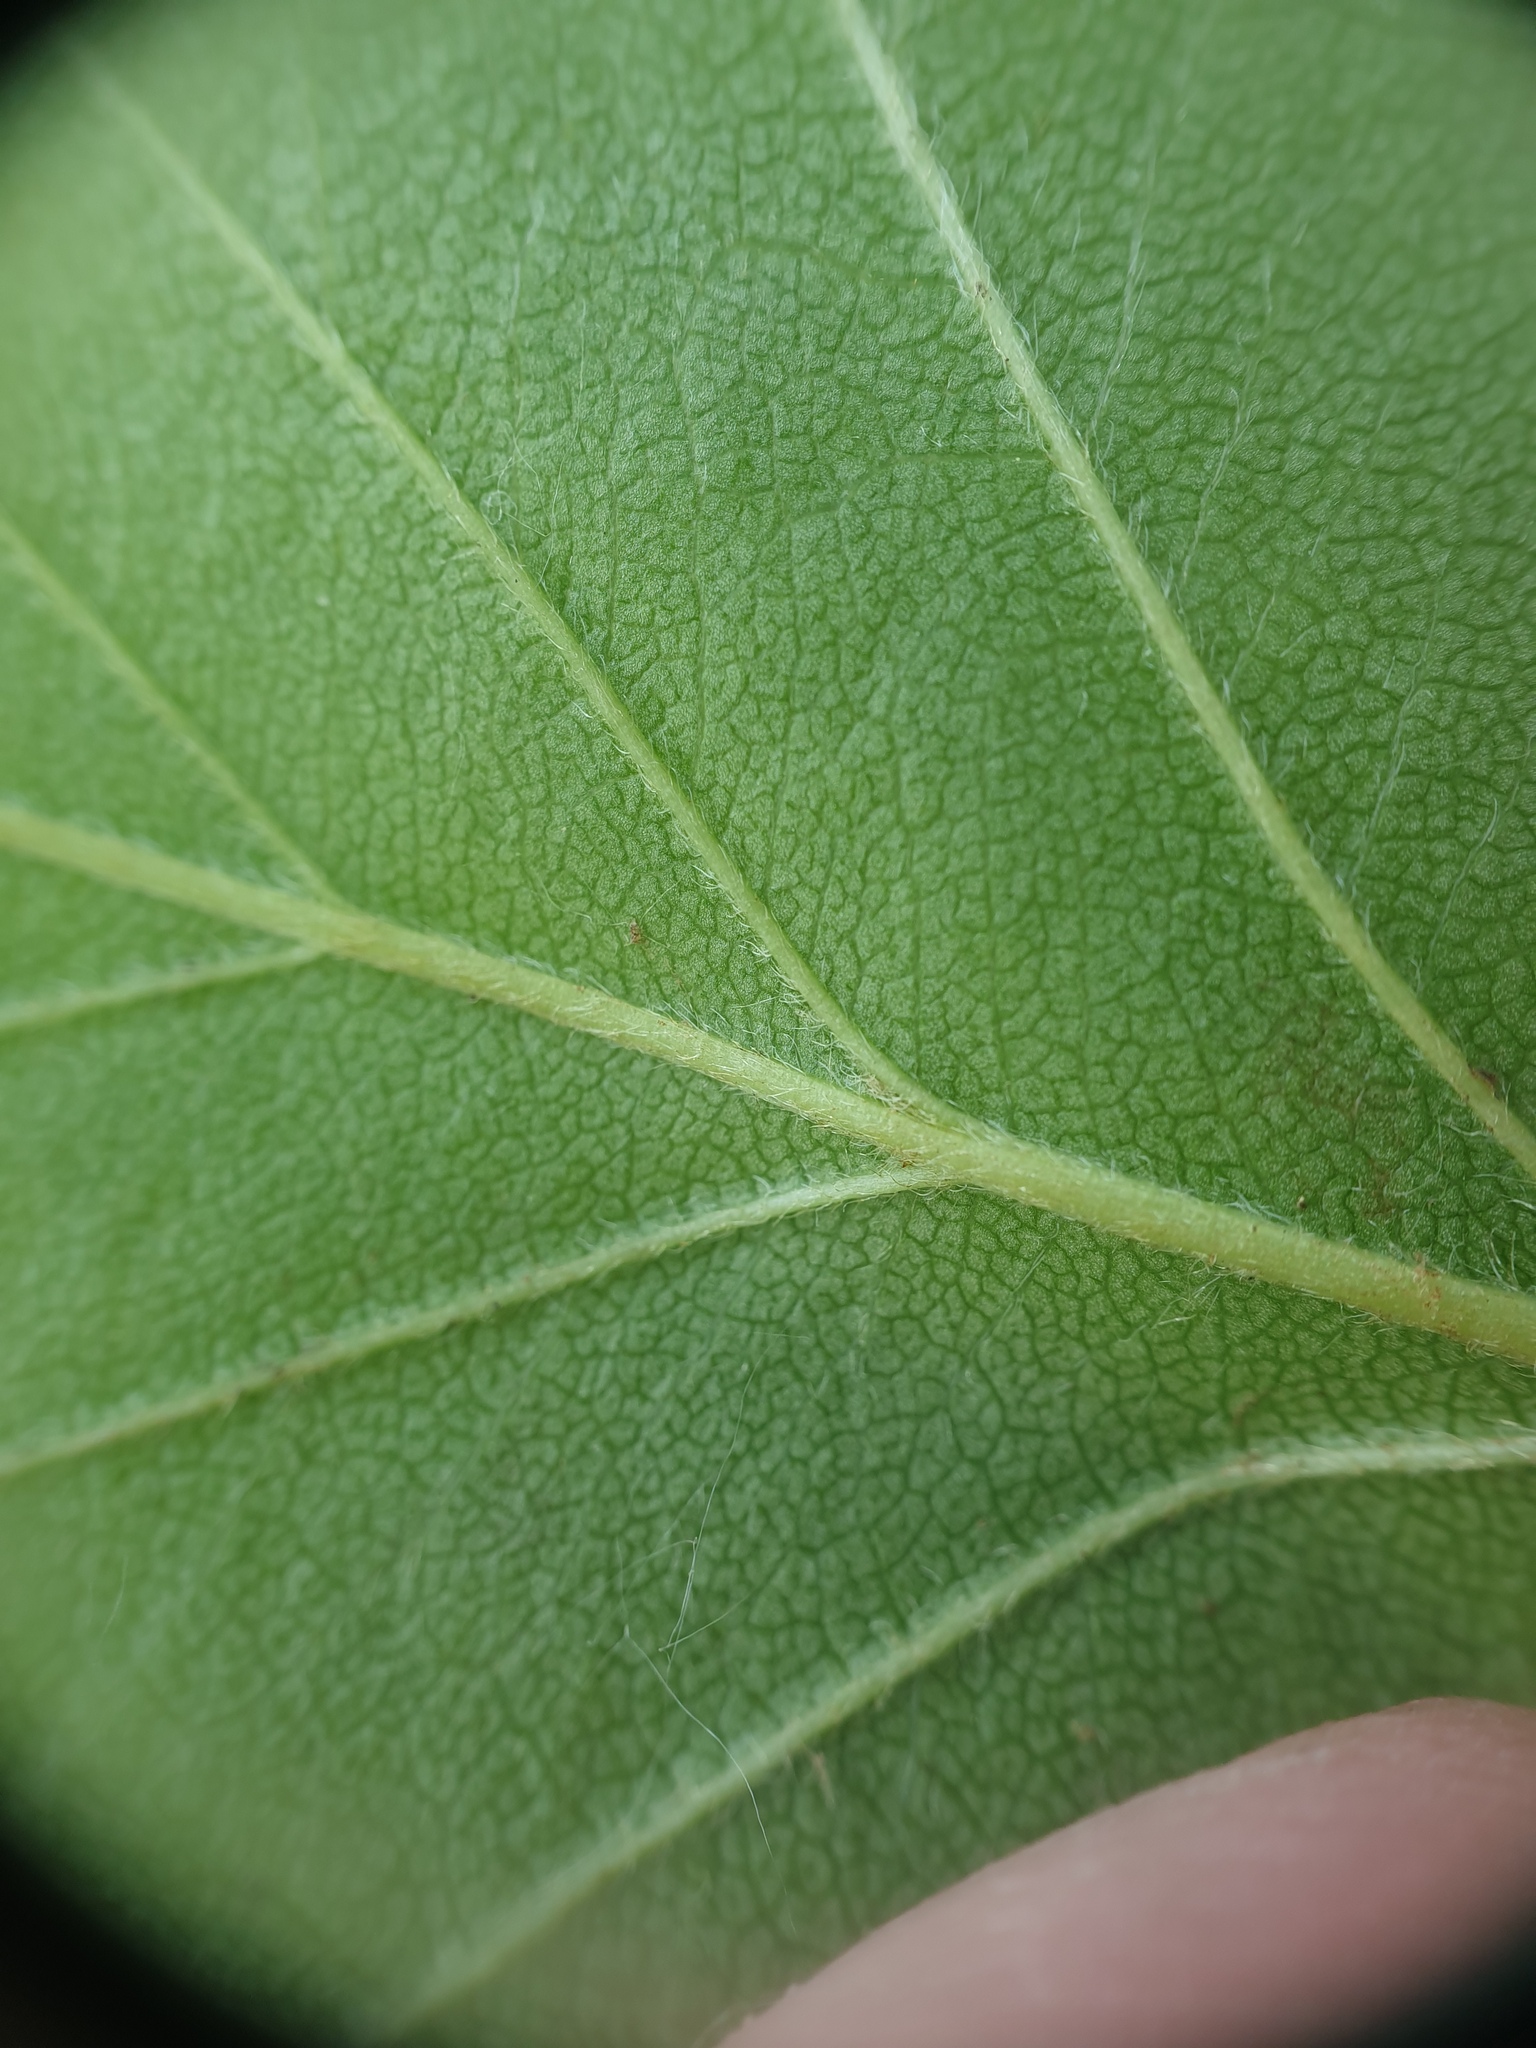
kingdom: Plantae
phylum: Tracheophyta
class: Magnoliopsida
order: Rosales
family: Rosaceae
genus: Crataegus
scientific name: Crataegus chrysocarpa
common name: Fire-berry hawthorn
